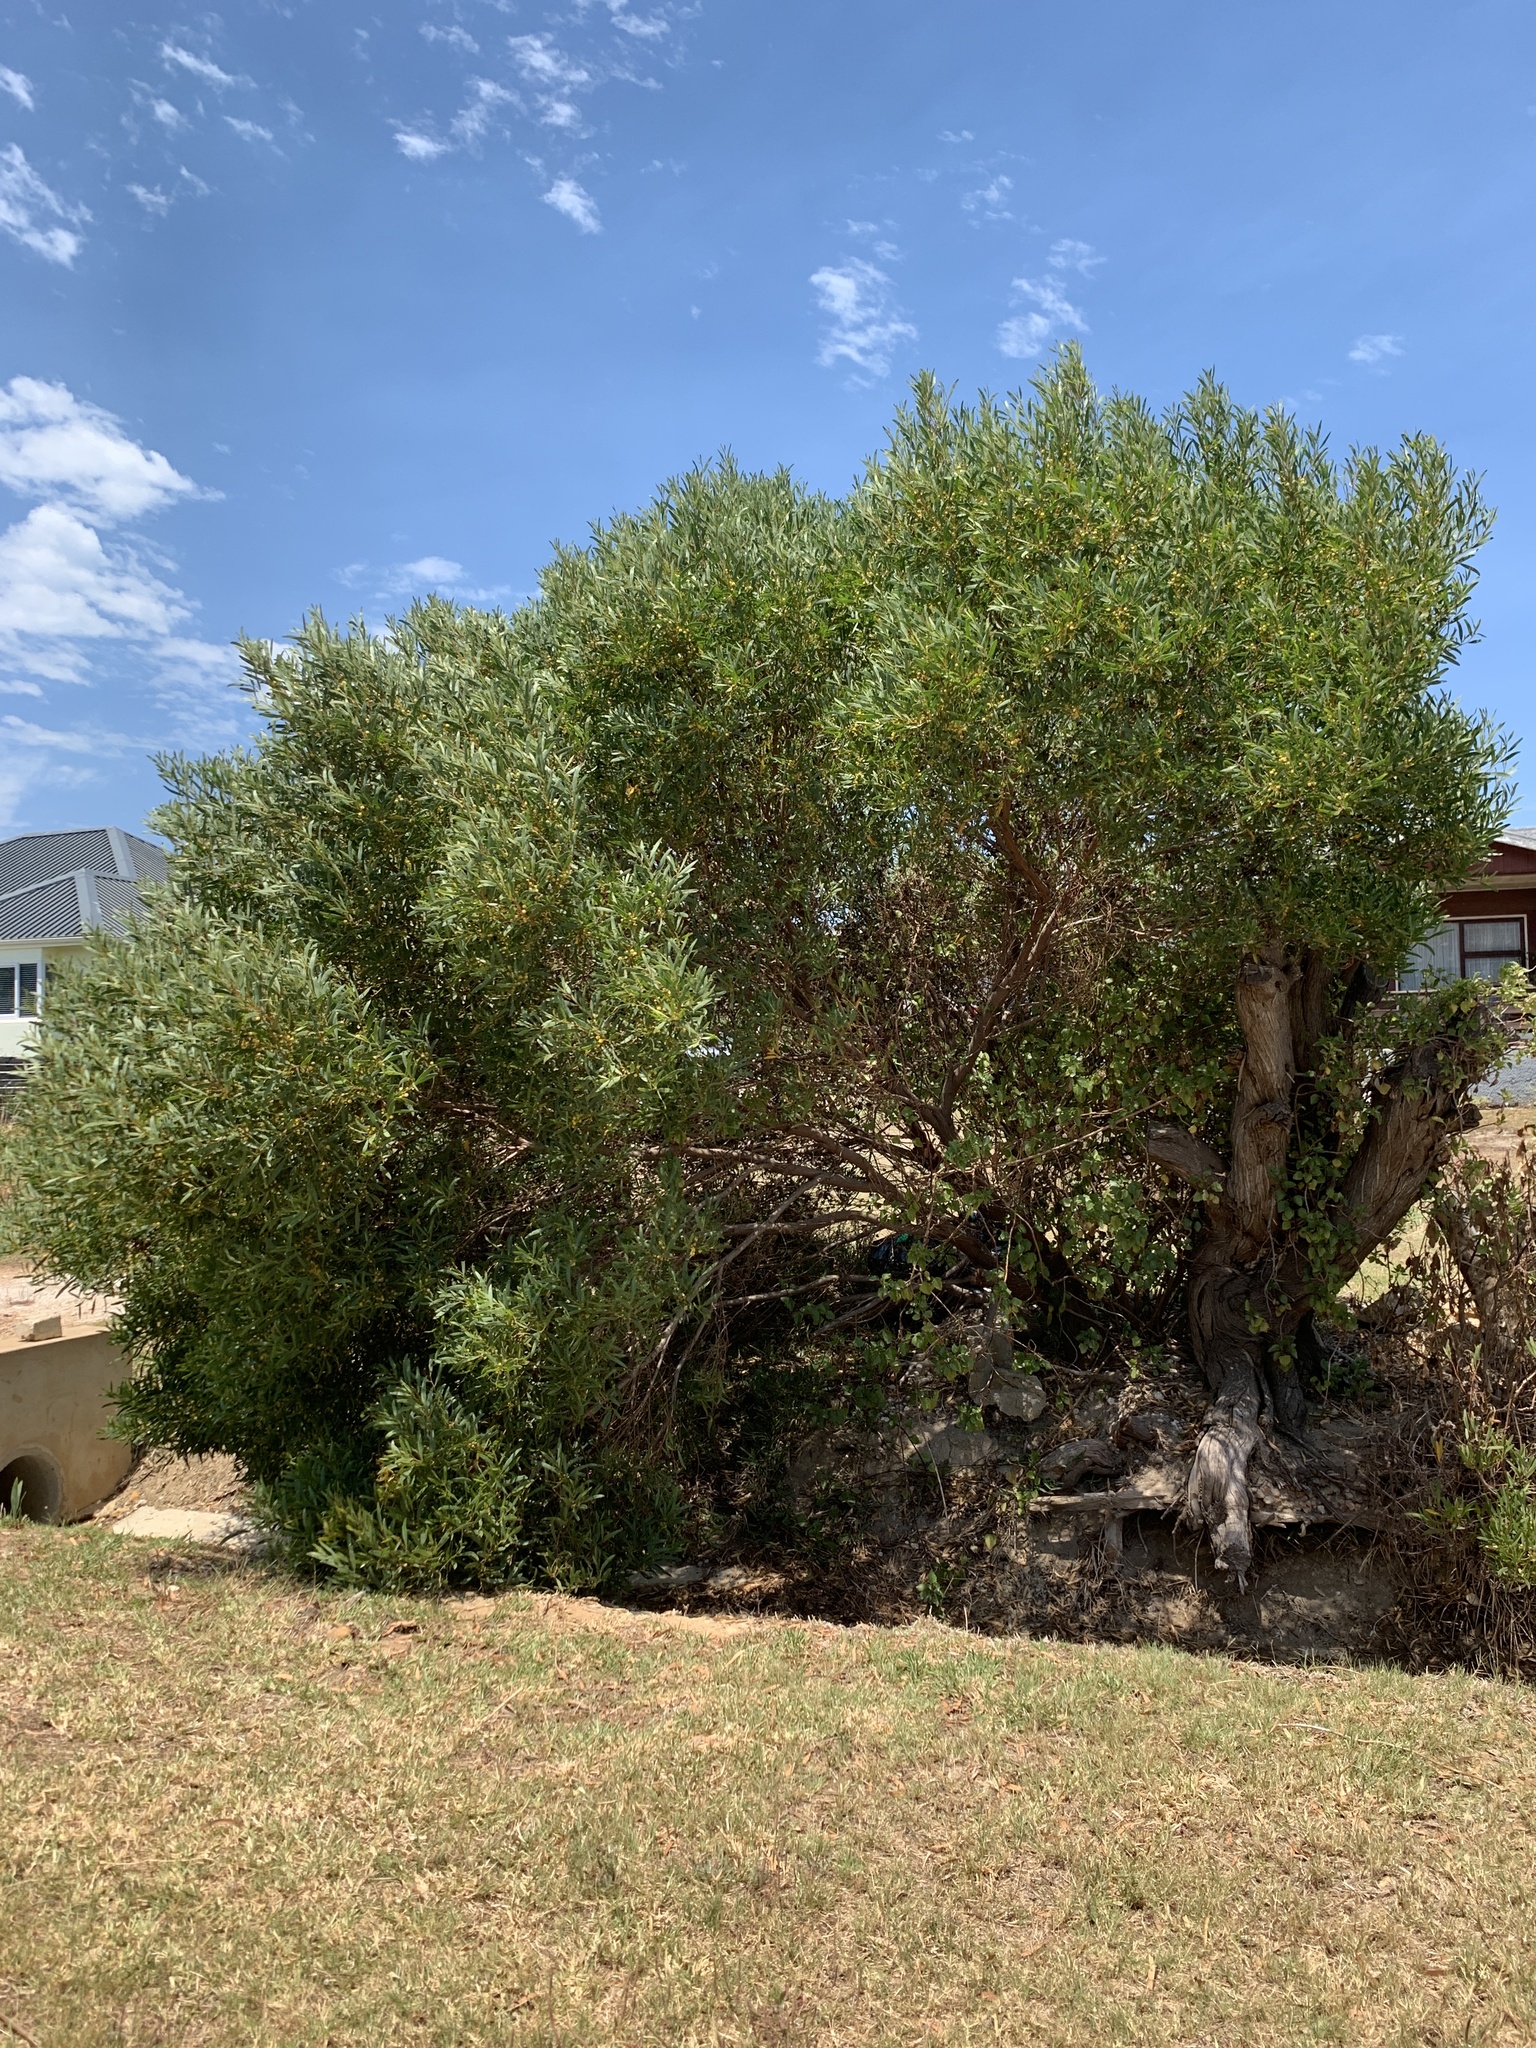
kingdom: Plantae
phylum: Tracheophyta
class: Magnoliopsida
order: Fabales
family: Fabaceae
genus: Acacia
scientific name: Acacia cyclops
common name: Coastal wattle
